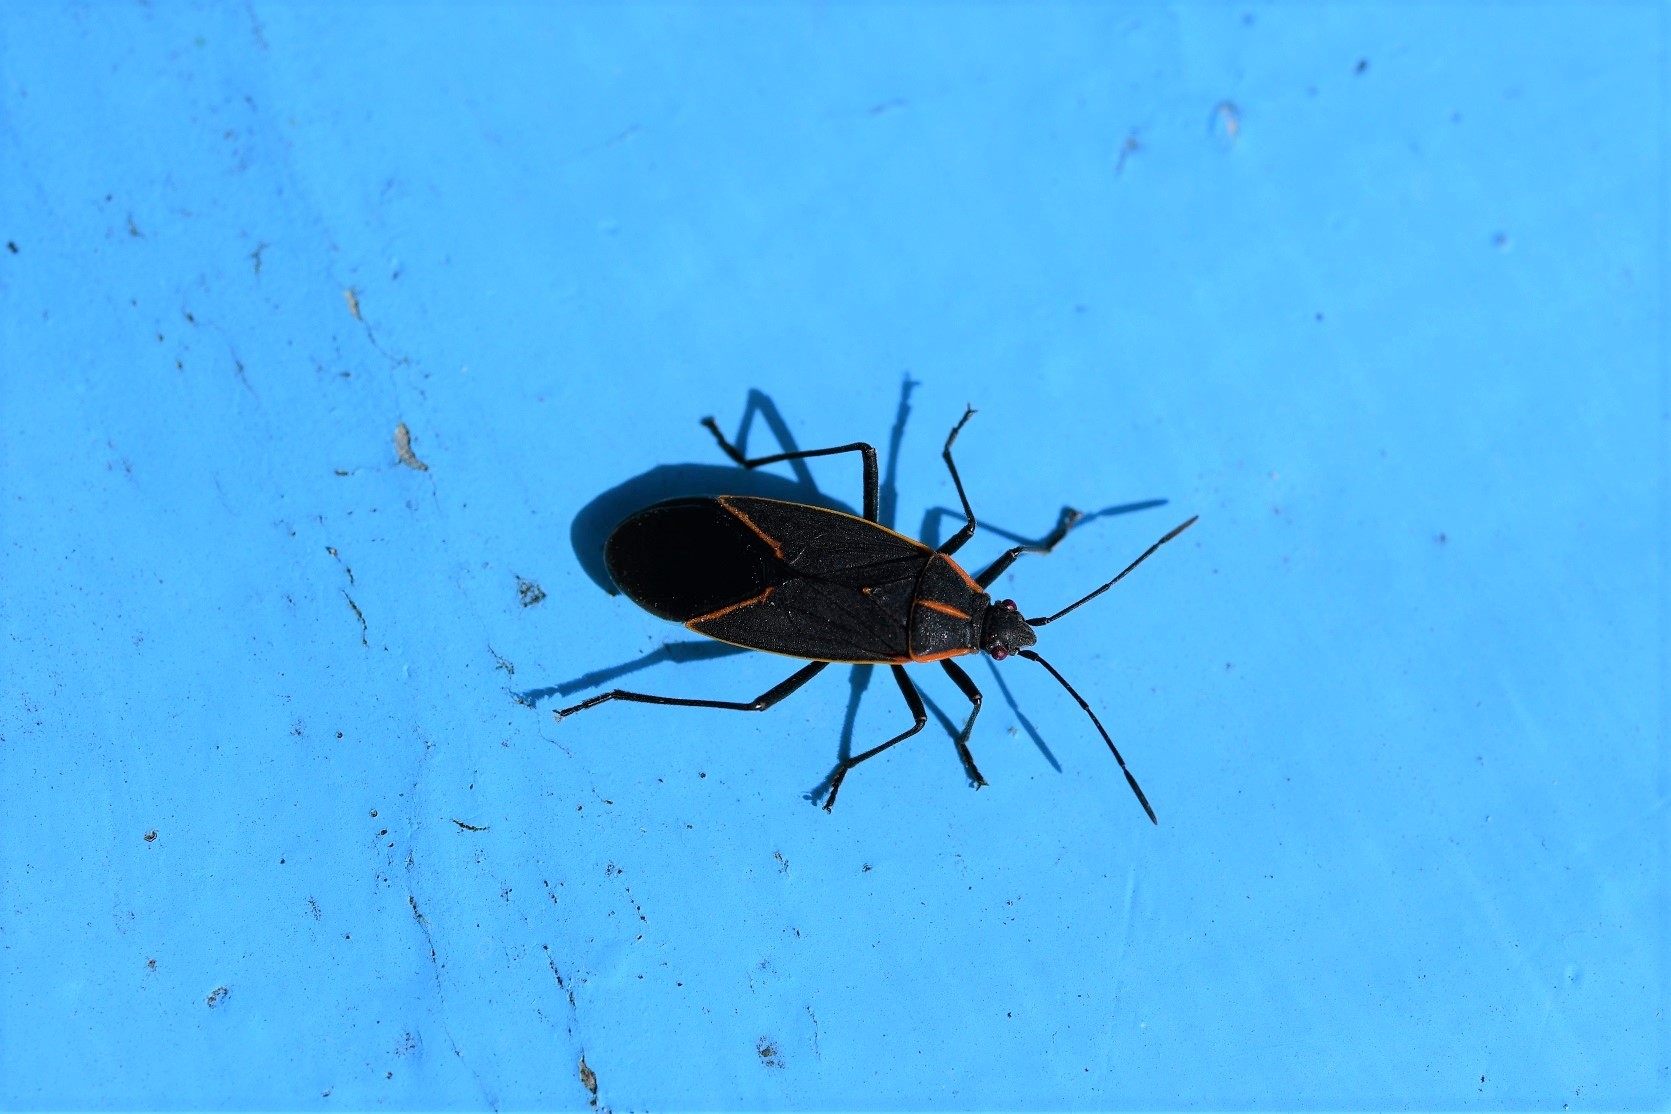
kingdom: Animalia
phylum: Arthropoda
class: Insecta
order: Hemiptera
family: Rhopalidae
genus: Boisea
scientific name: Boisea trivittata
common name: Boxelder bug
